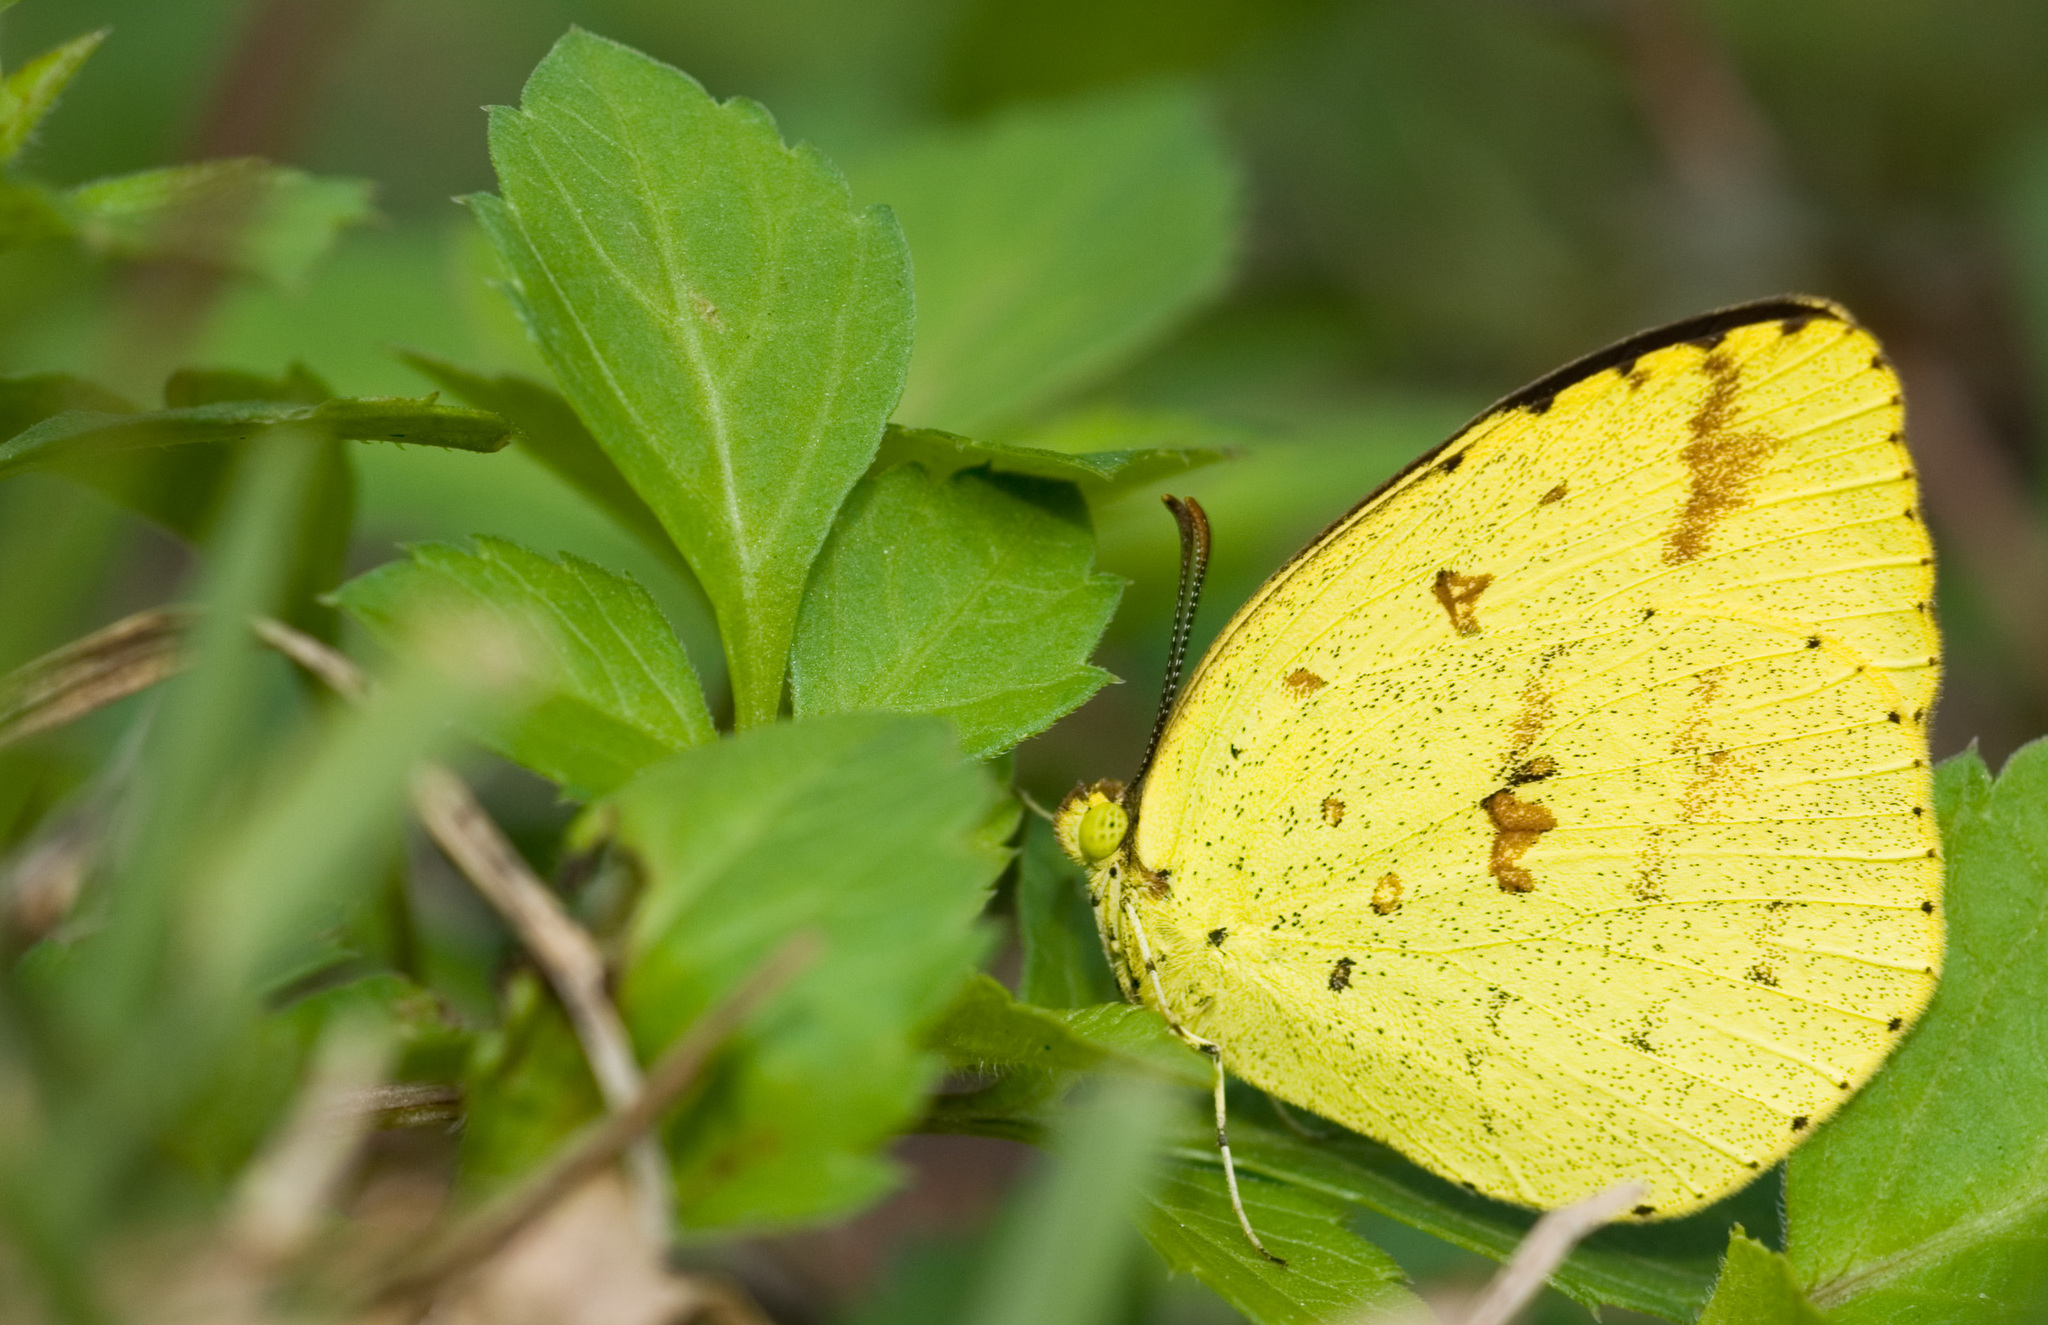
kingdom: Animalia
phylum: Arthropoda
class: Insecta
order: Lepidoptera
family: Pieridae
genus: Eurema
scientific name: Eurema hecabe
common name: Pale grass yellow
